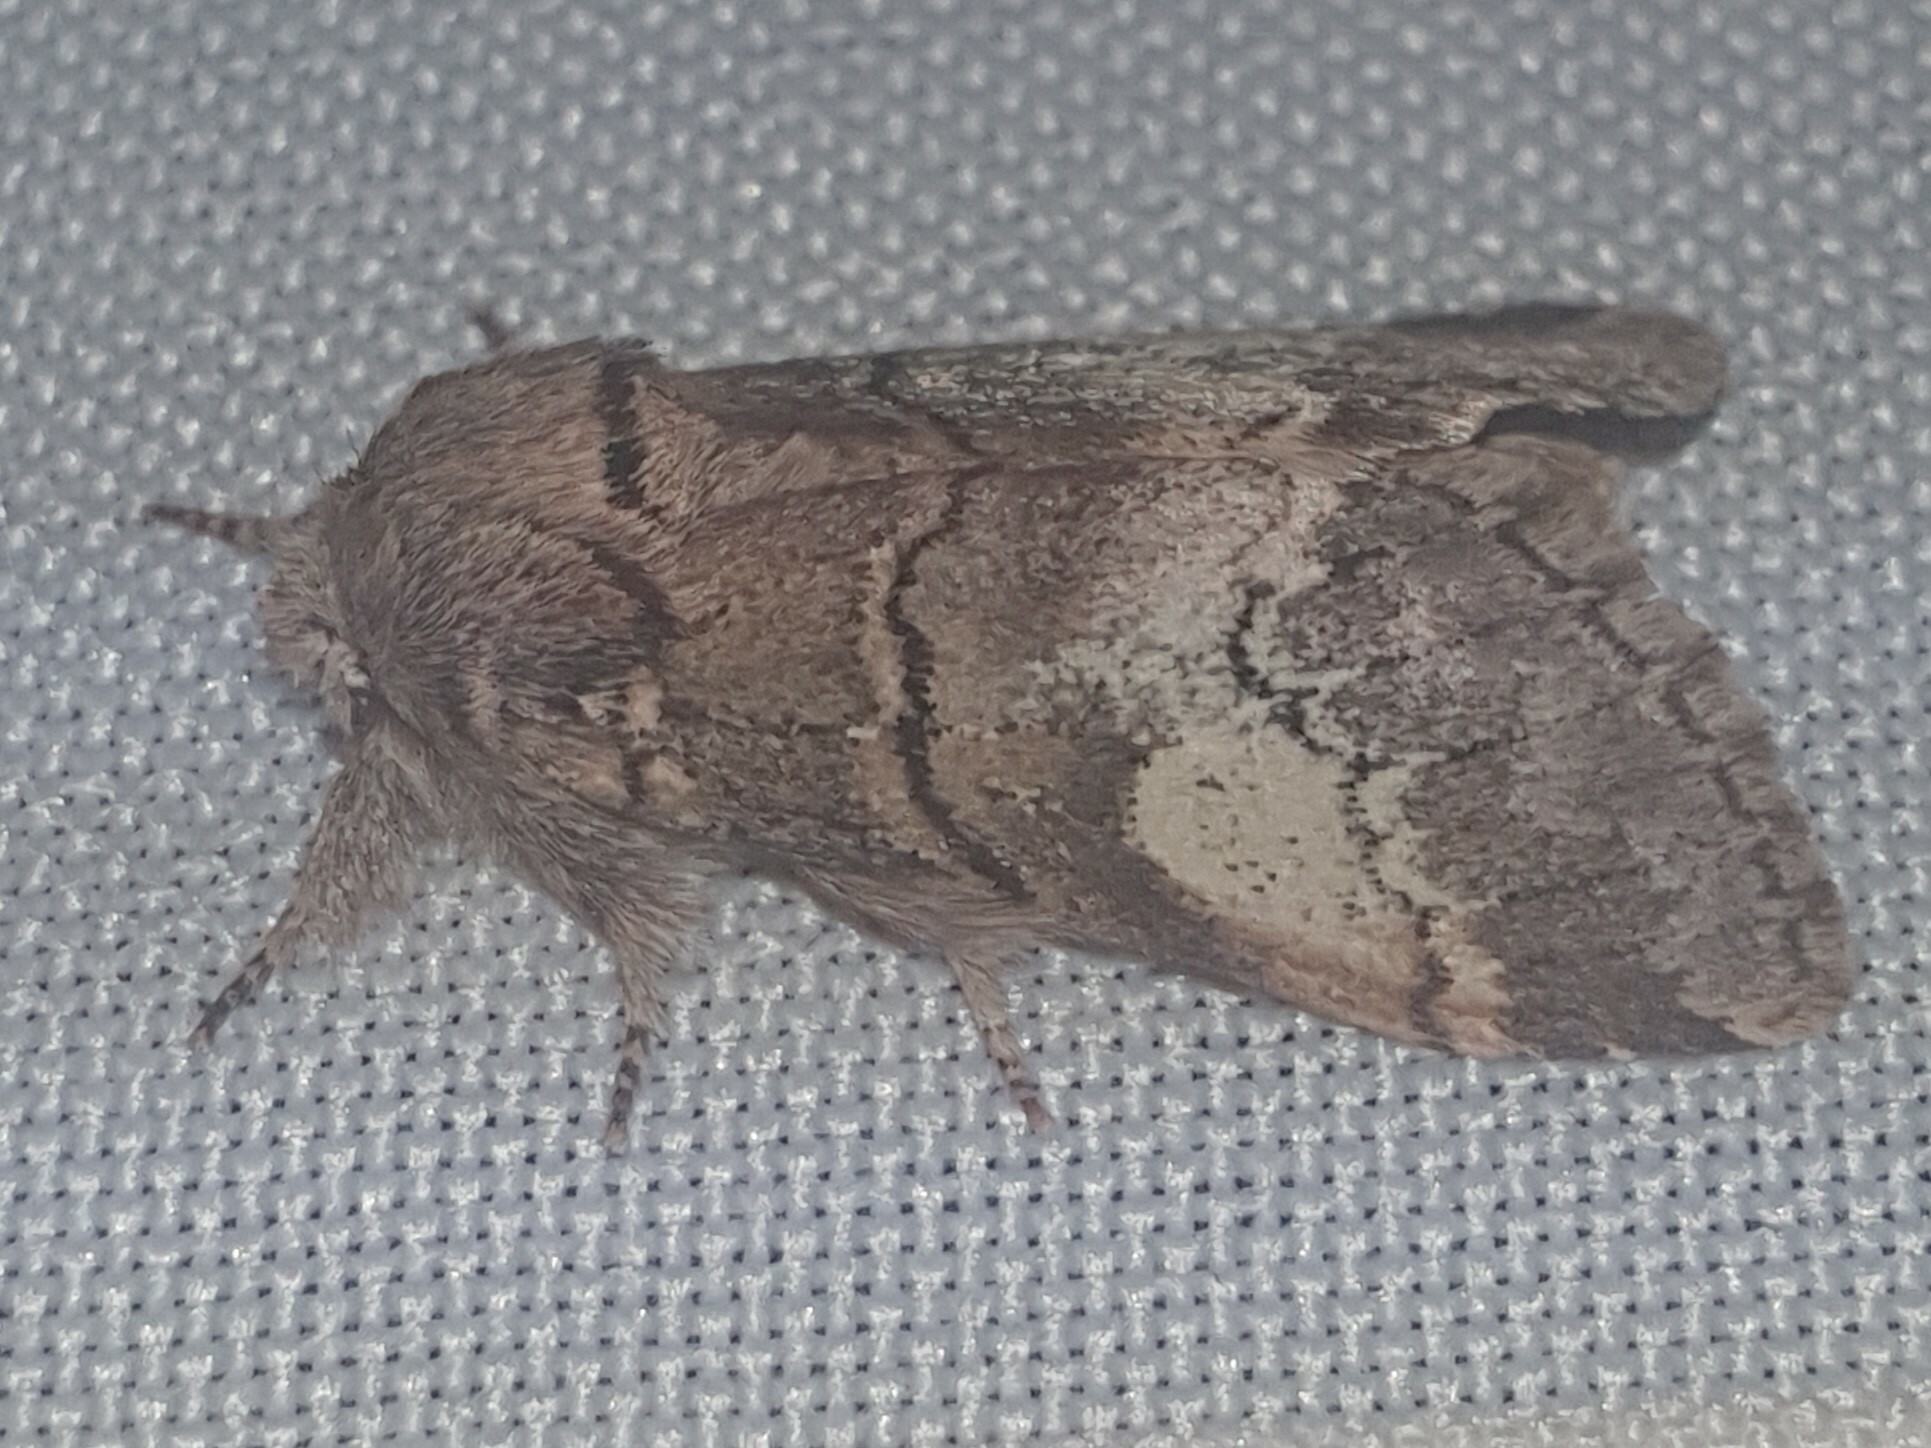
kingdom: Animalia
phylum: Arthropoda
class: Insecta
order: Lepidoptera
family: Notodontidae
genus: Drymonia
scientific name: Drymonia querna
